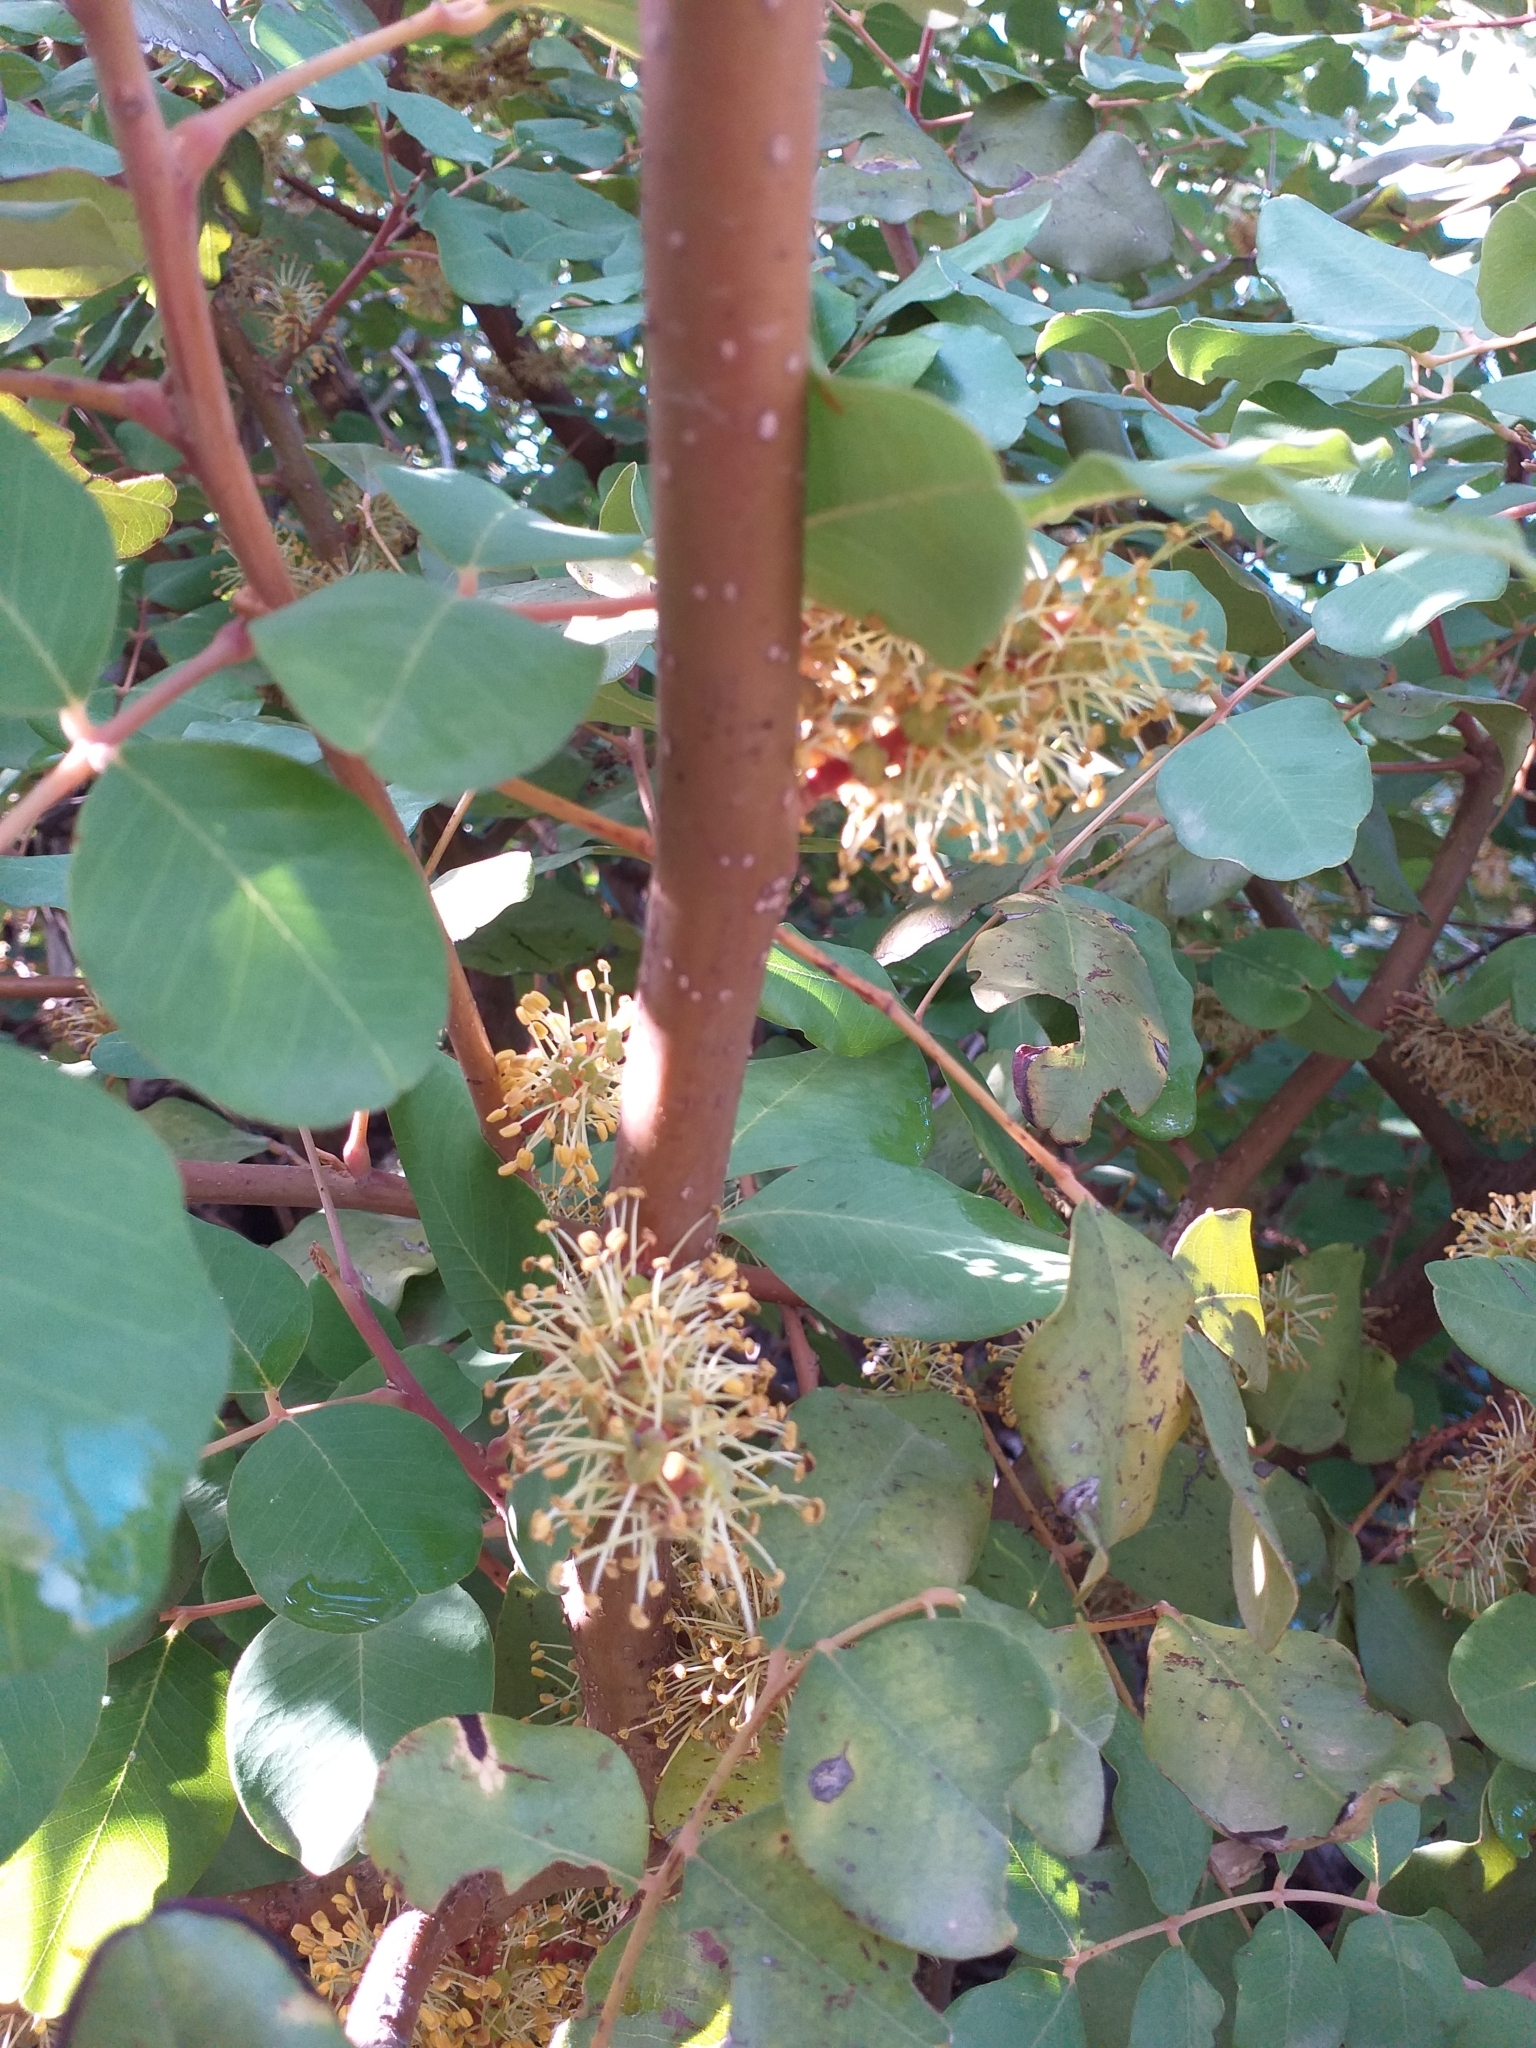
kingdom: Plantae
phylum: Tracheophyta
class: Magnoliopsida
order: Fabales
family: Fabaceae
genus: Ceratonia
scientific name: Ceratonia siliqua
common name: Carob
